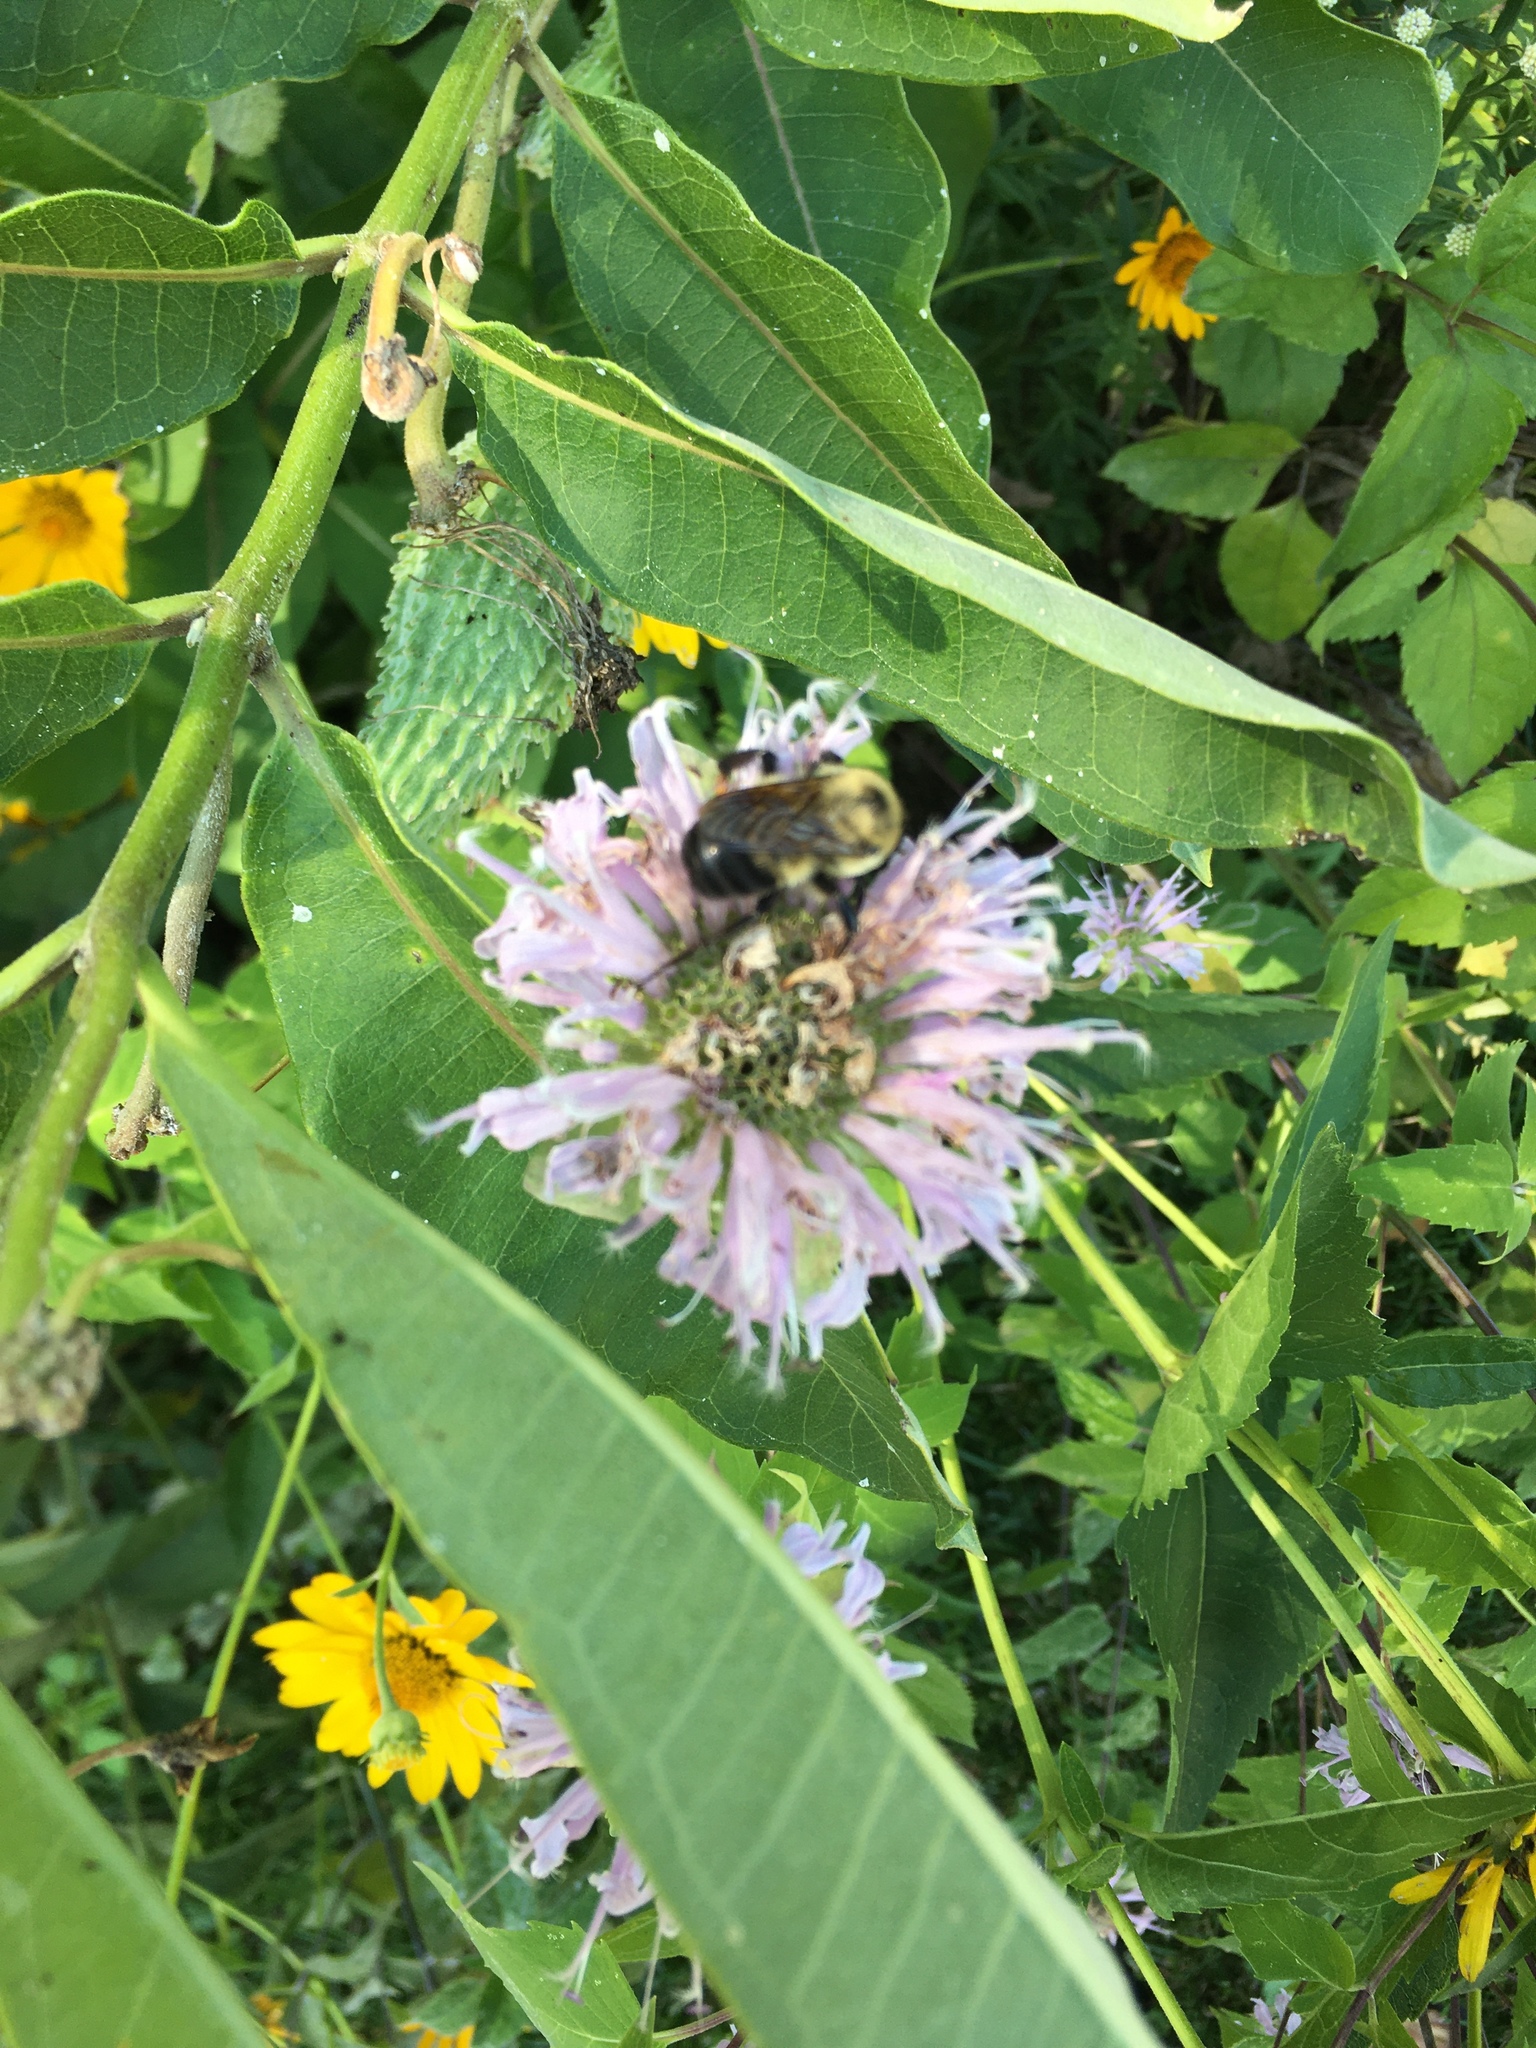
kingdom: Animalia
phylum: Arthropoda
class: Insecta
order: Hymenoptera
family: Apidae
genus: Bombus
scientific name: Bombus griseocollis
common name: Brown-belted bumble bee
